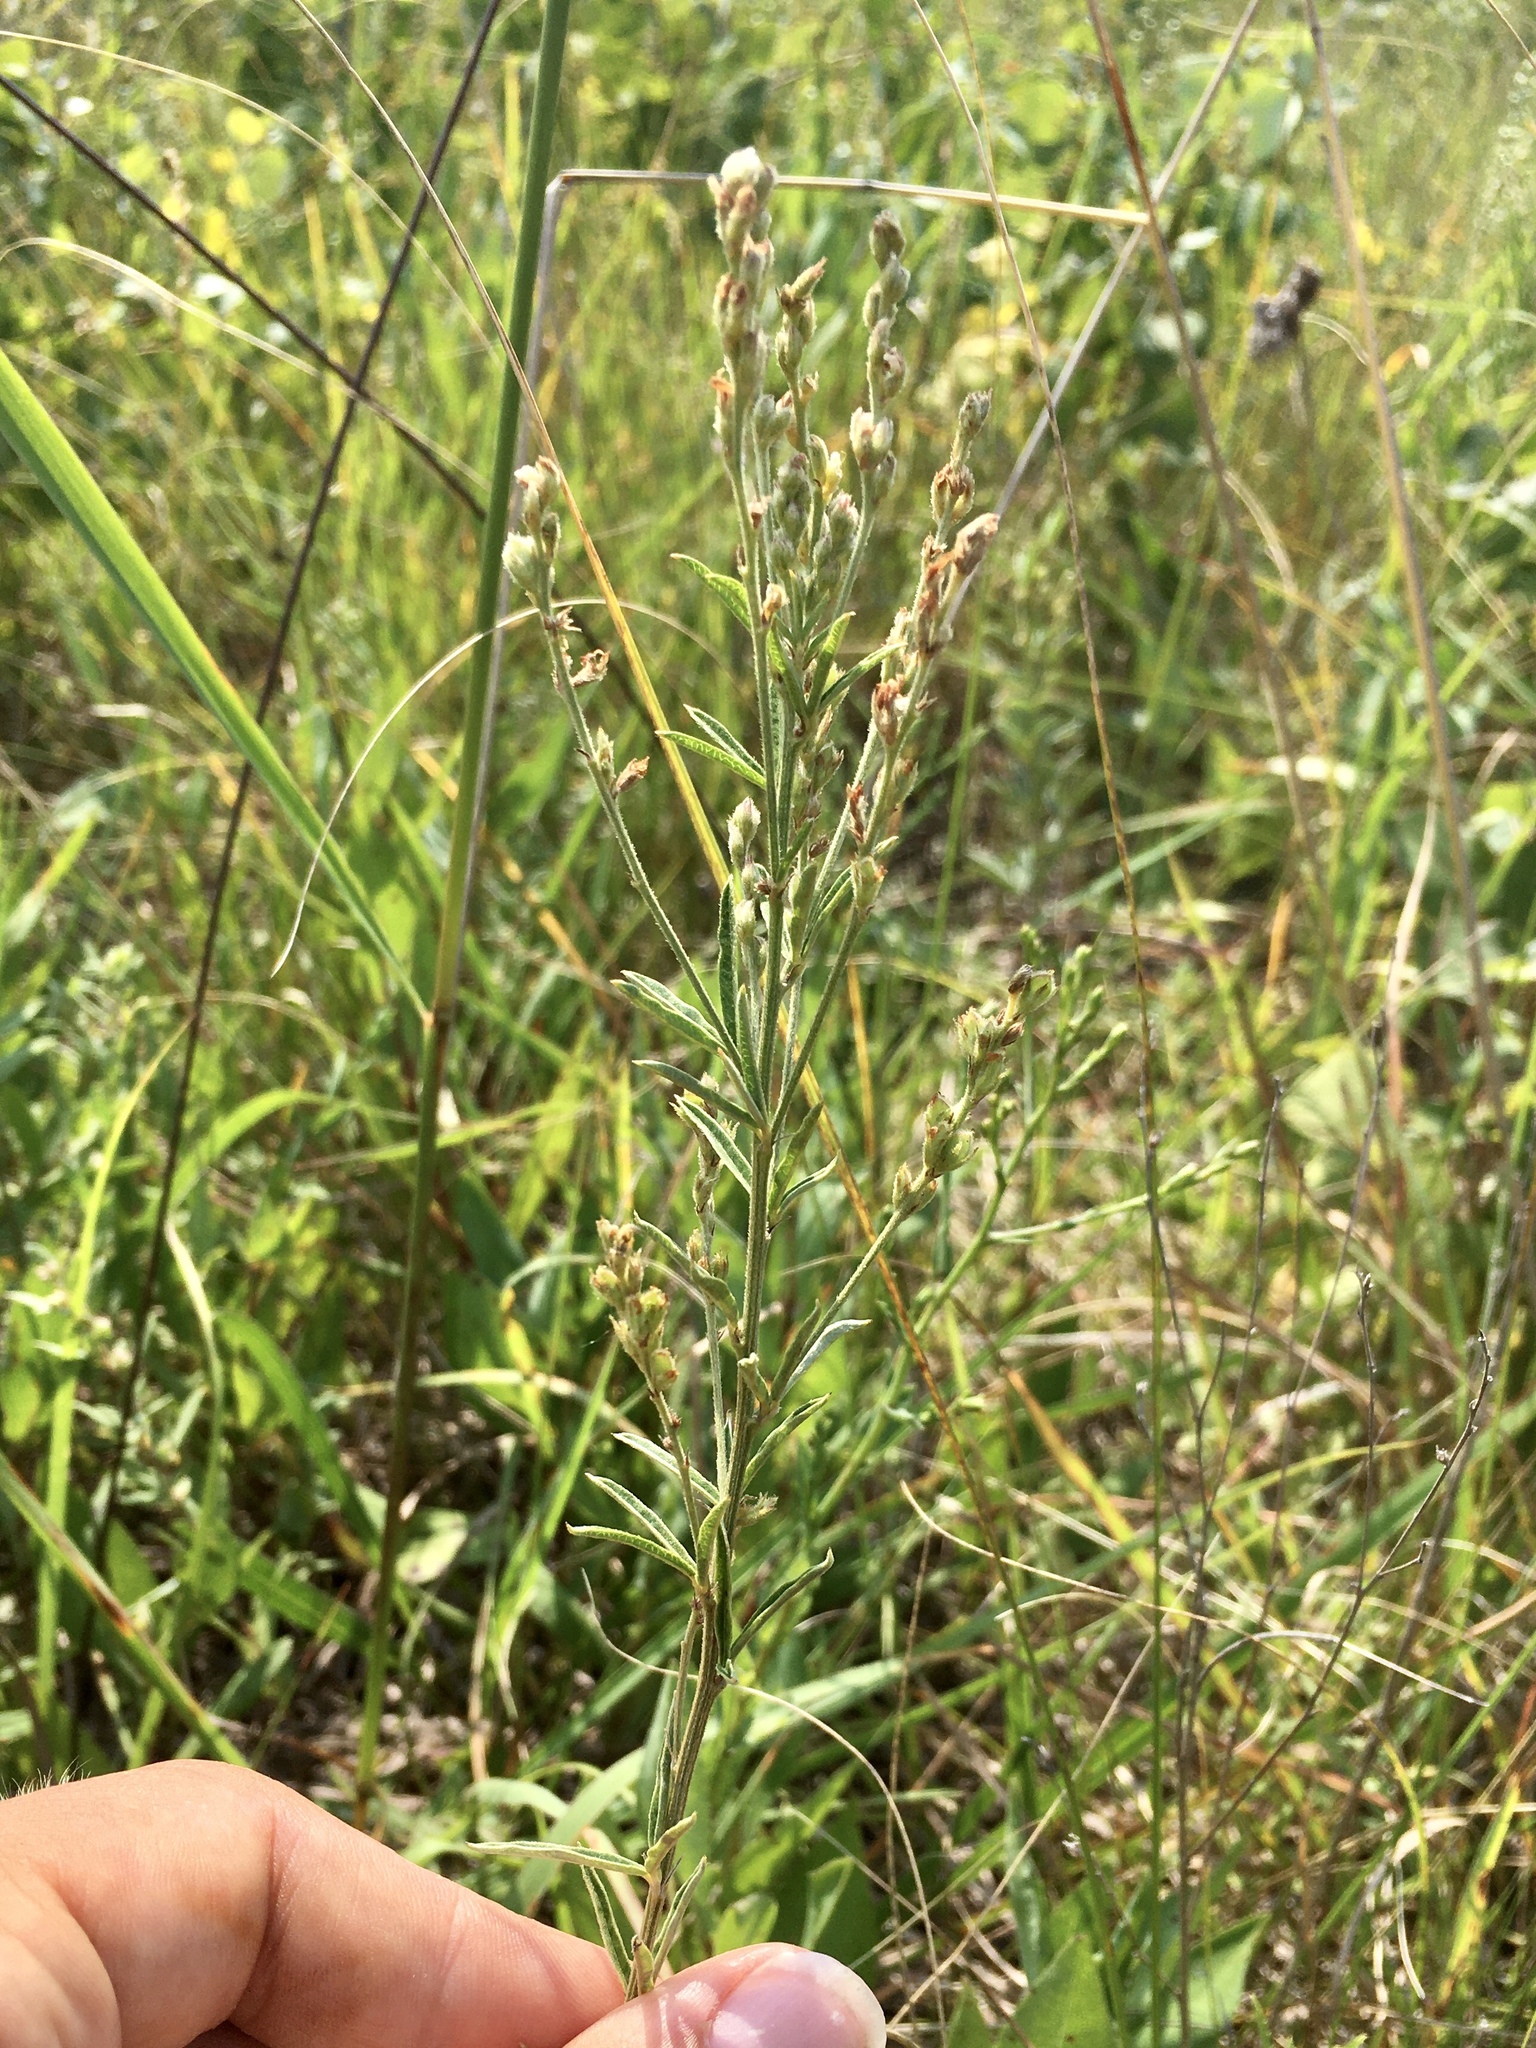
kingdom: Plantae
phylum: Tracheophyta
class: Magnoliopsida
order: Fabales
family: Fabaceae
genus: Lespedeza
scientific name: Lespedeza leptostachya
